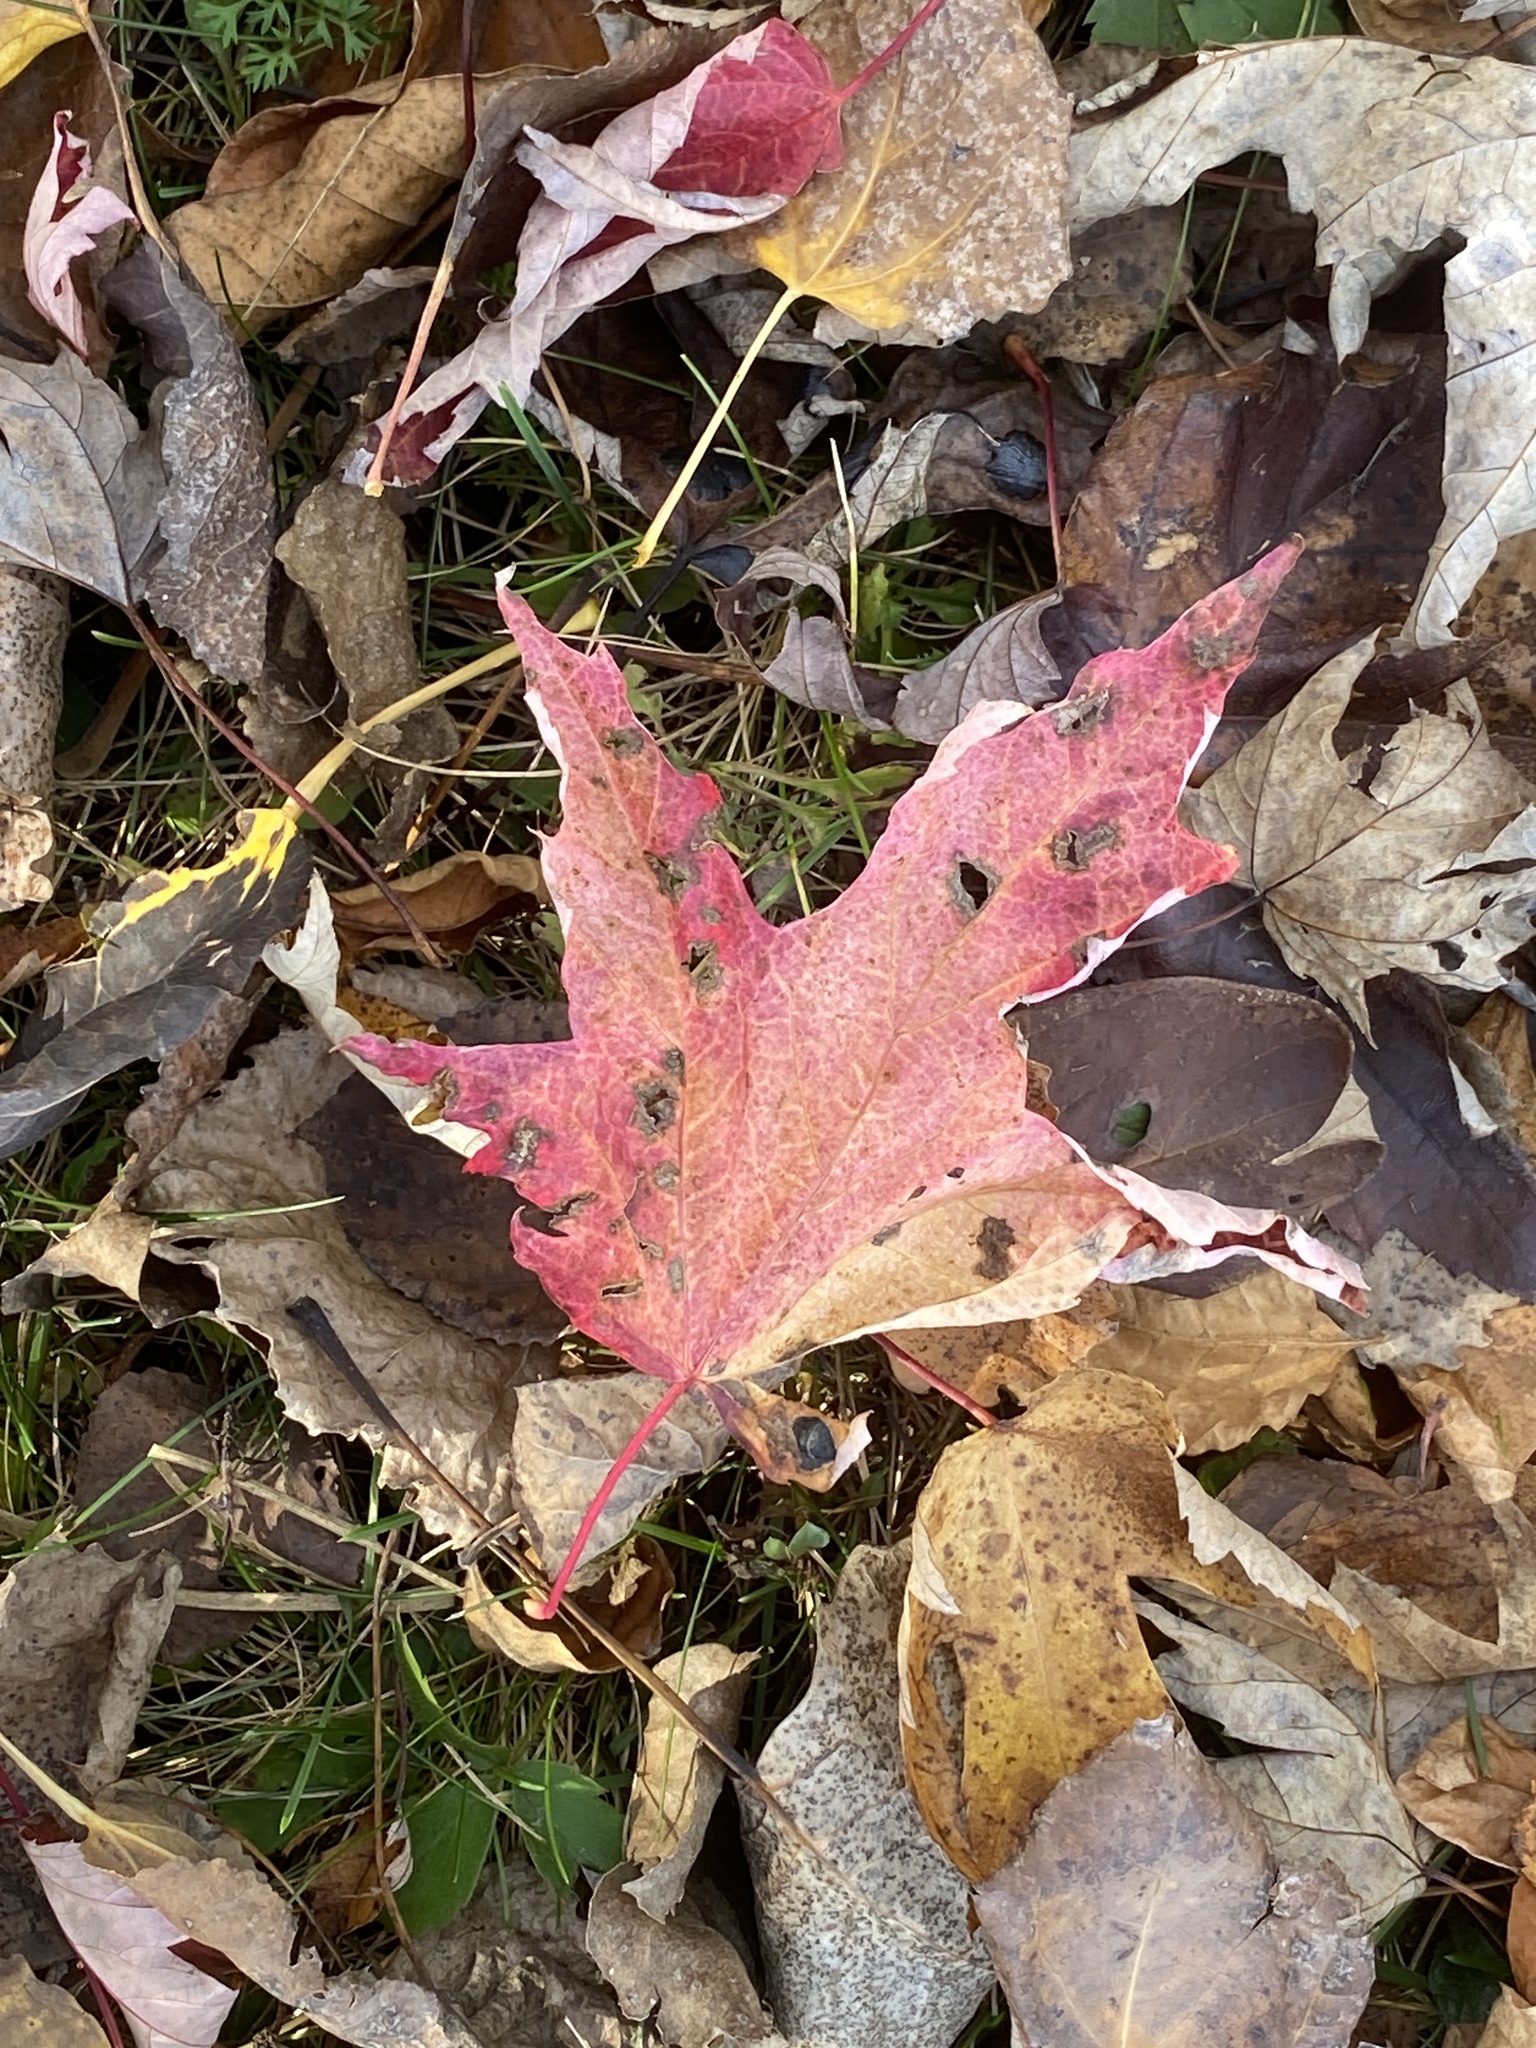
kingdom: Plantae
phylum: Tracheophyta
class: Magnoliopsida
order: Sapindales
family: Sapindaceae
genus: Acer
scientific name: Acer saccharinum
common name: Silver maple
